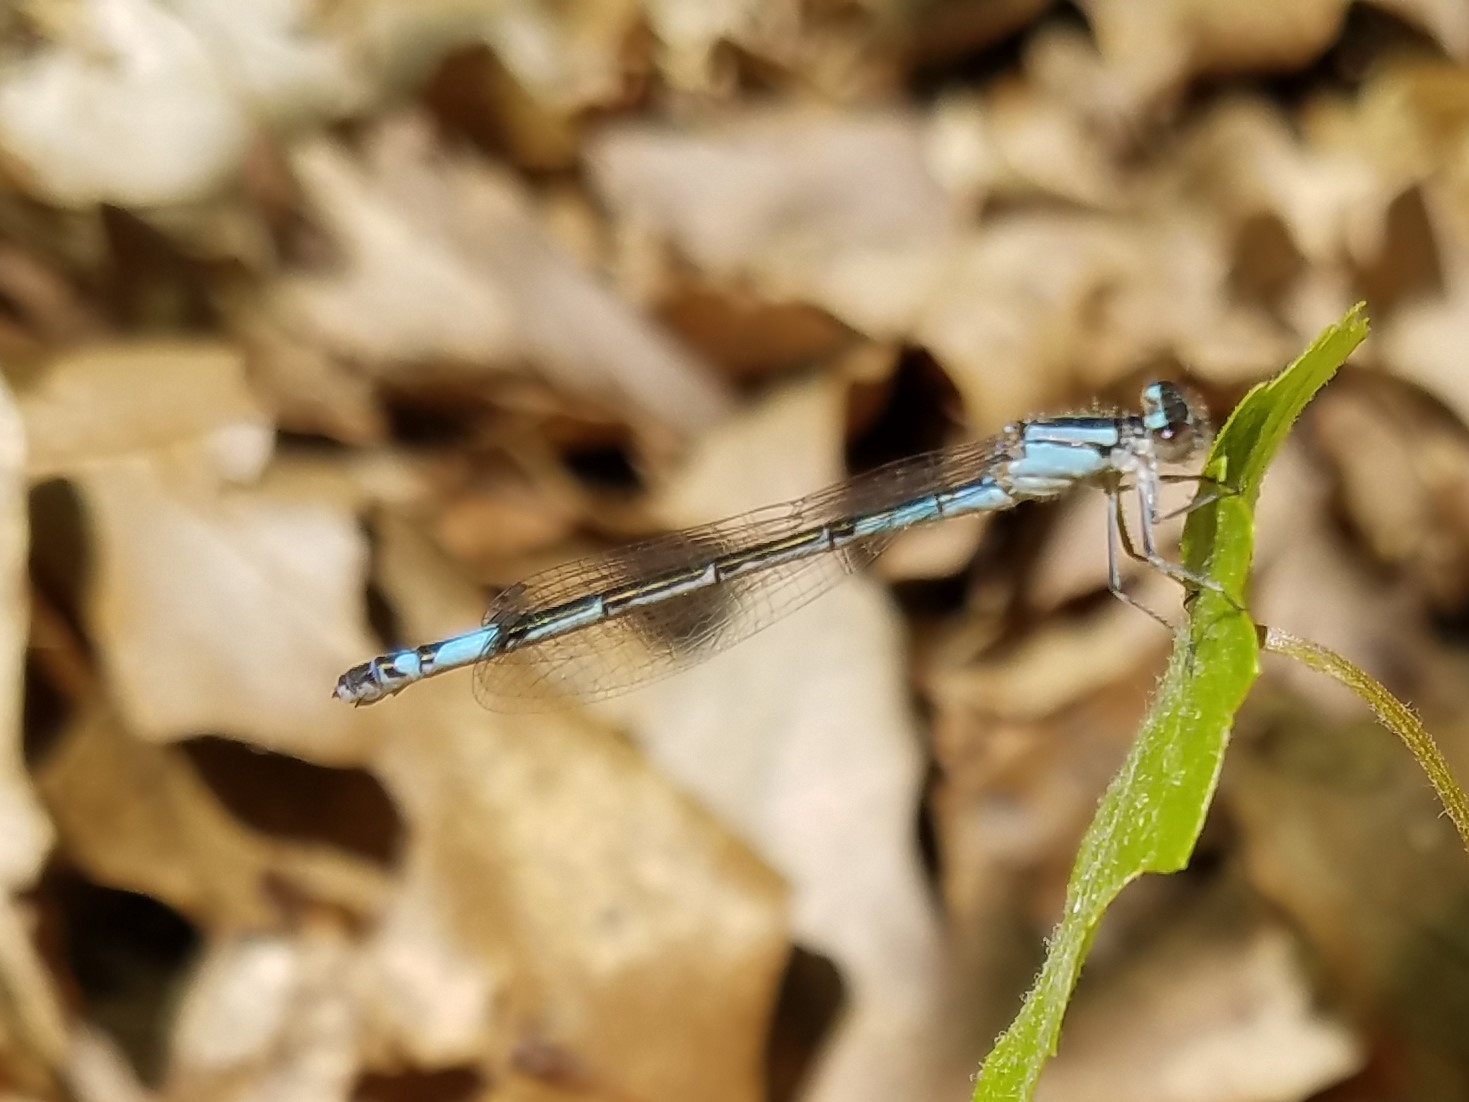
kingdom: Animalia
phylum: Arthropoda
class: Insecta
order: Odonata
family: Coenagrionidae
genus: Enallagma
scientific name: Enallagma aspersum
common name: Azure bluet
